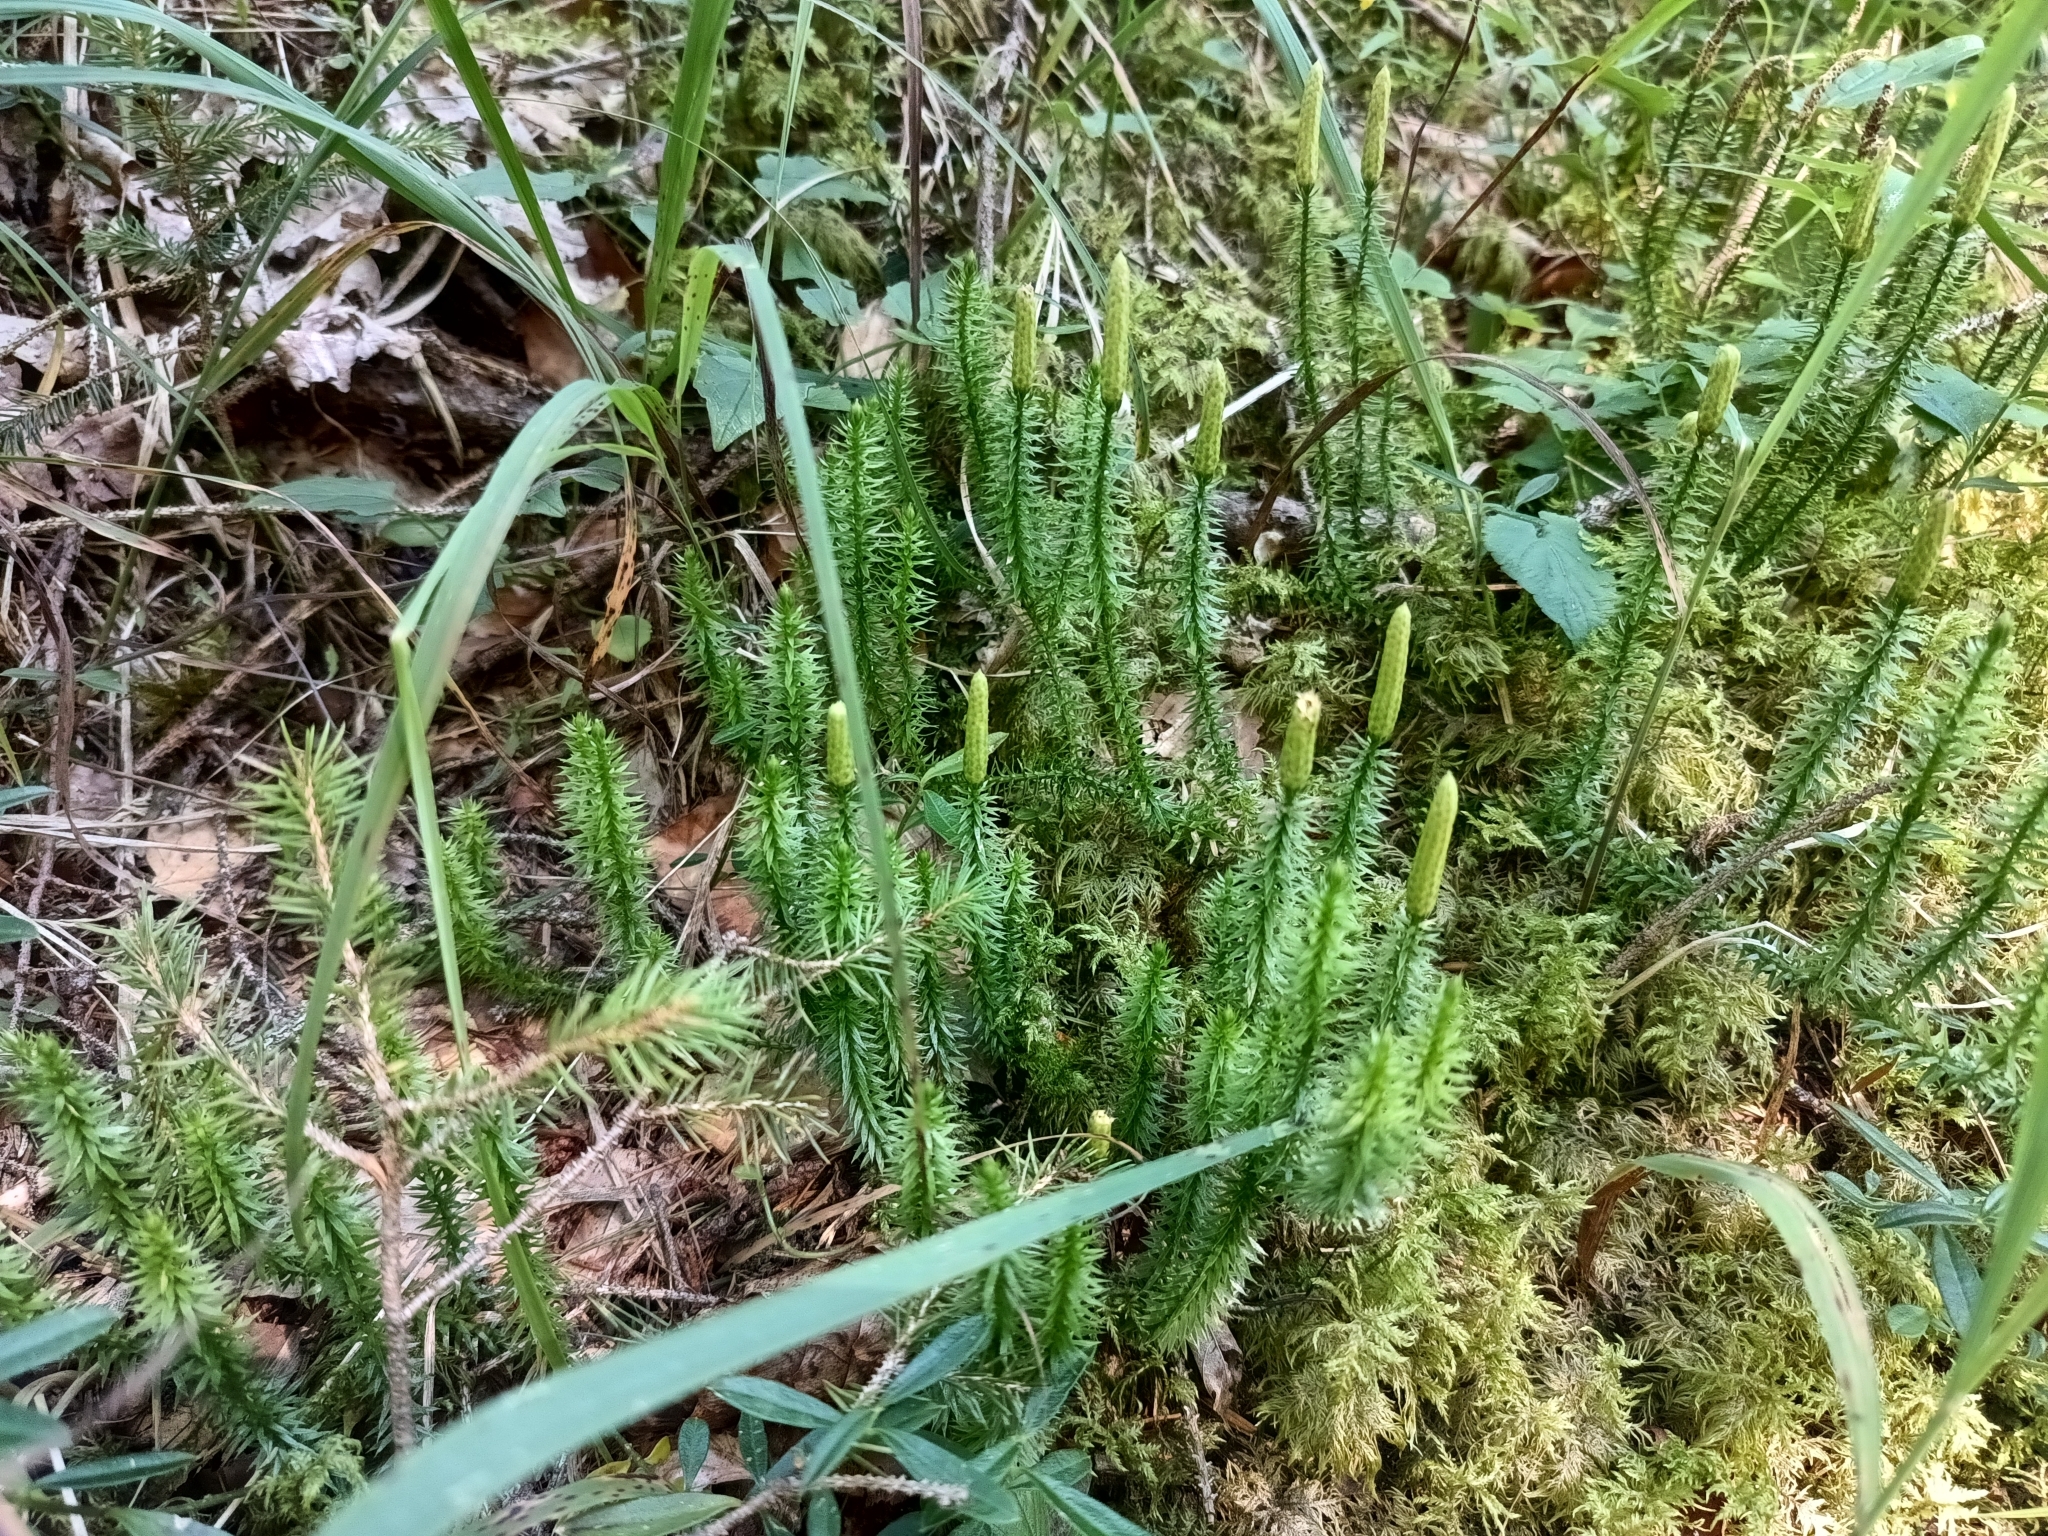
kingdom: Plantae
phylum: Tracheophyta
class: Lycopodiopsida
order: Lycopodiales
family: Lycopodiaceae
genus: Spinulum
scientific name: Spinulum annotinum
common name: Interrupted club-moss
